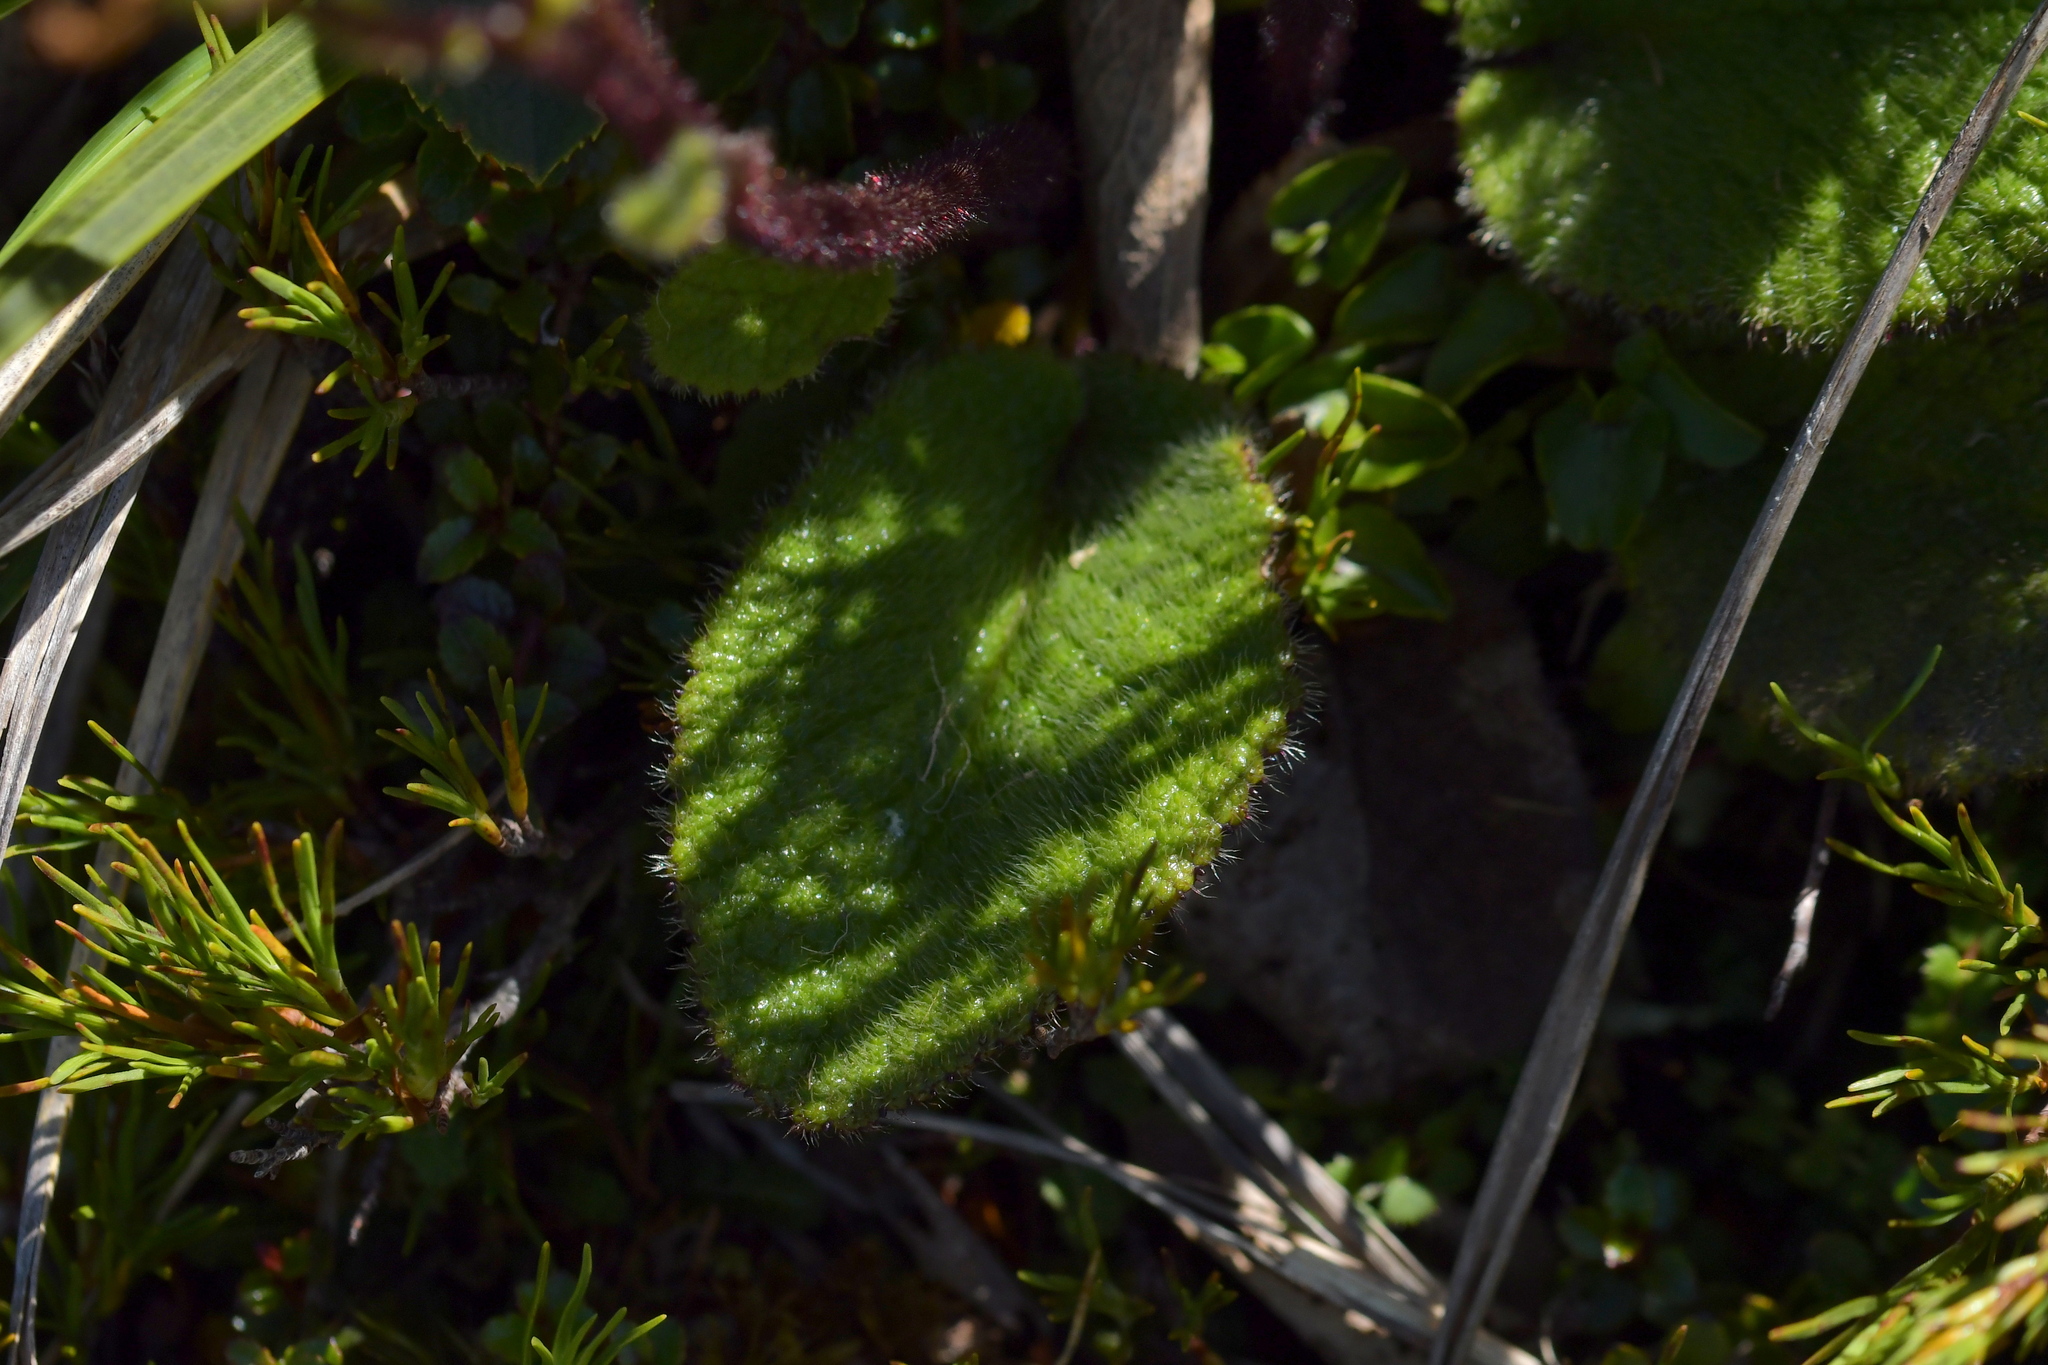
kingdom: Plantae
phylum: Tracheophyta
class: Magnoliopsida
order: Asterales
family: Asteraceae
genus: Brachyglottis
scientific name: Brachyglottis lagopus
